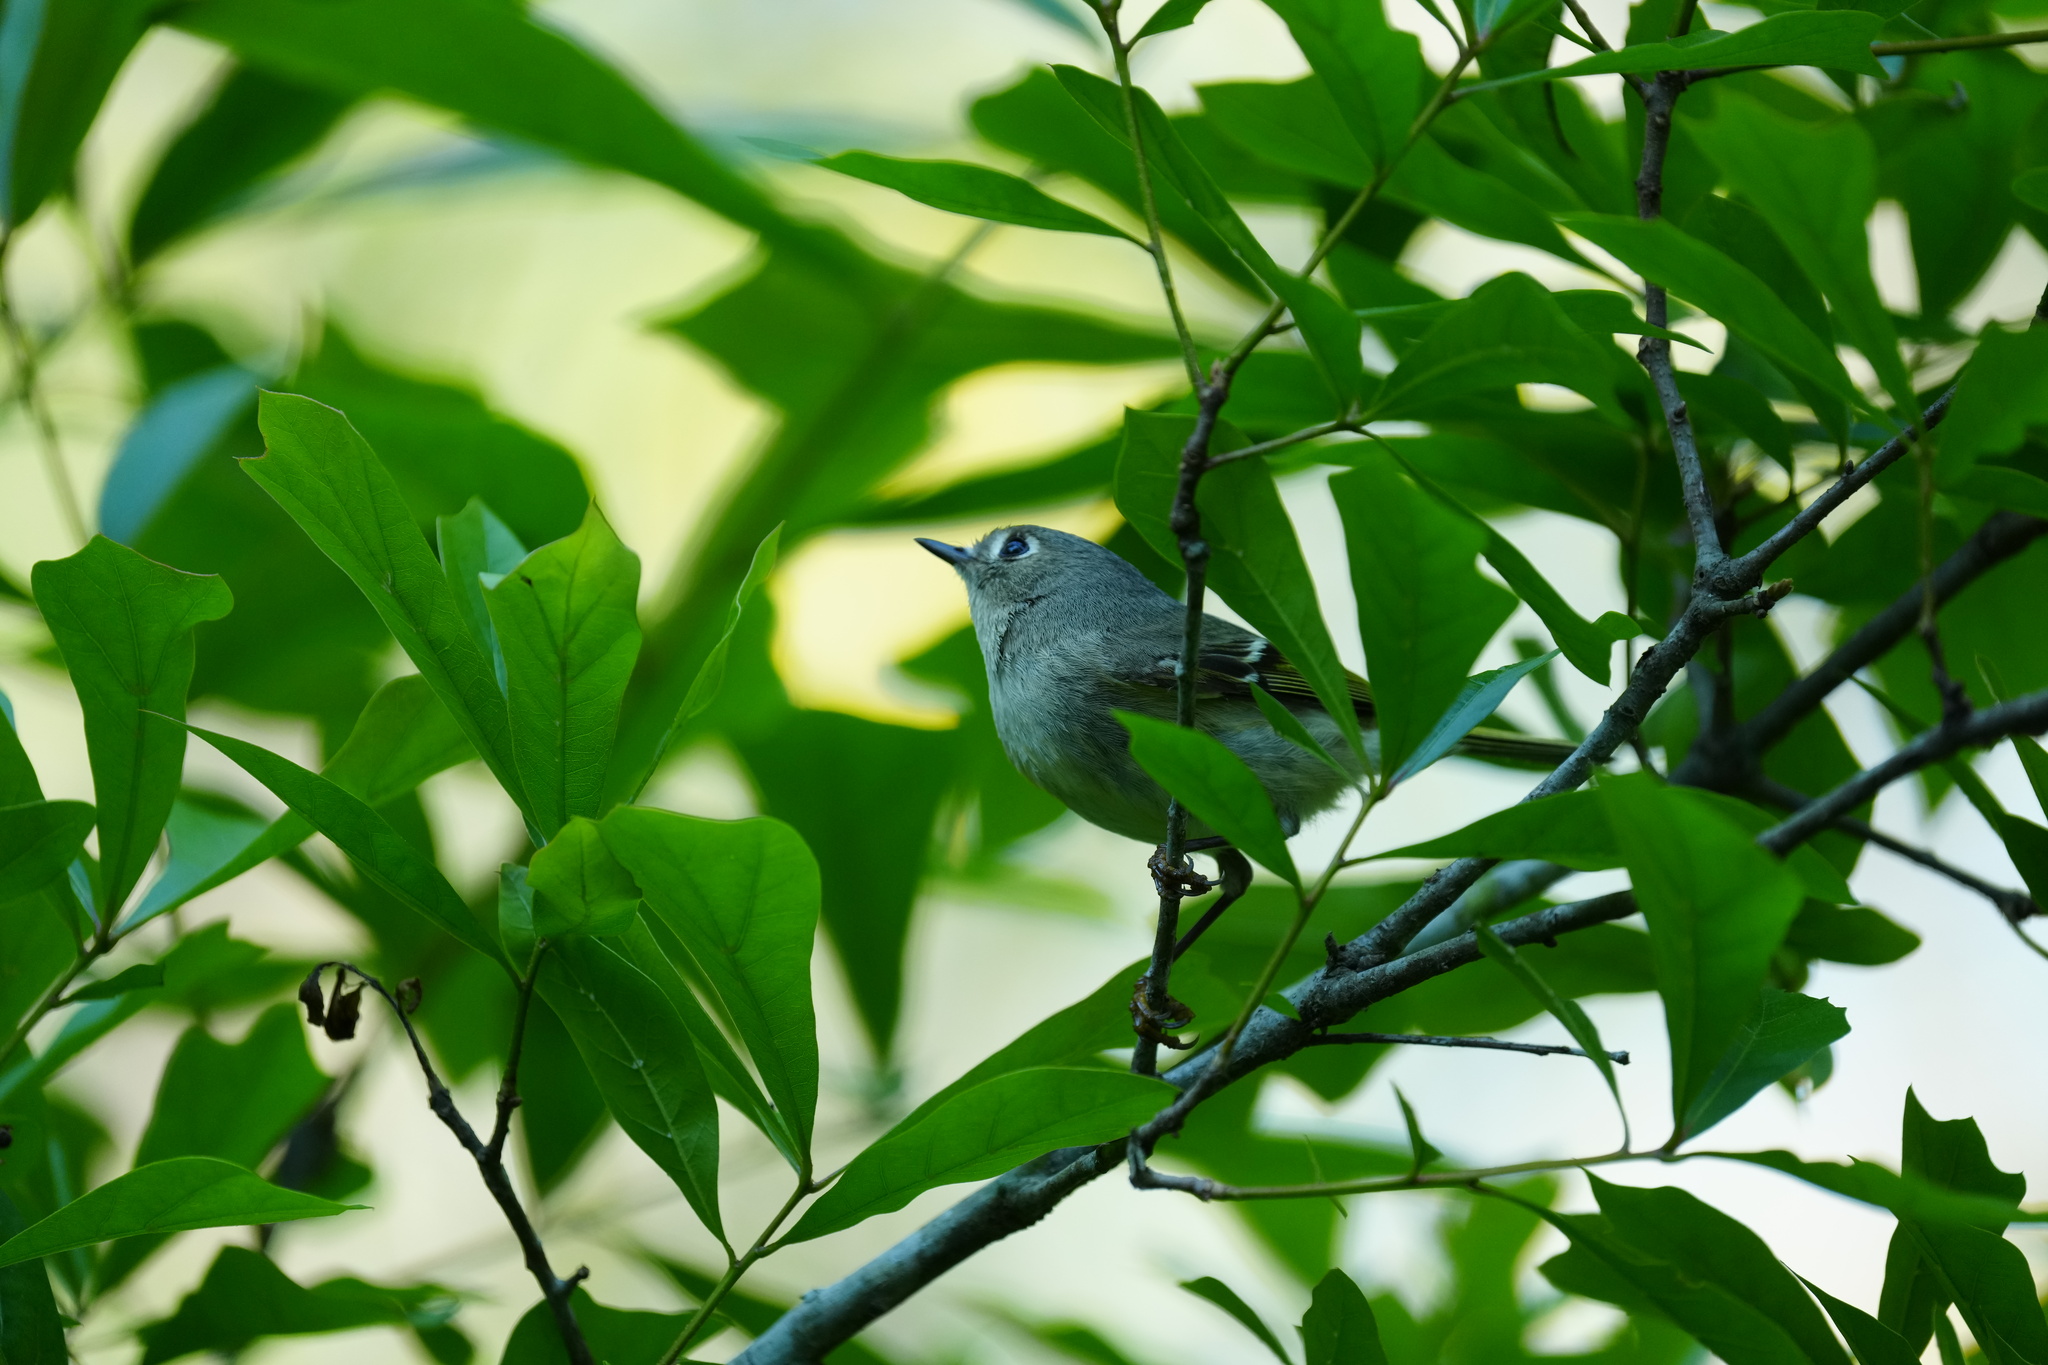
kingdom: Animalia
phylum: Chordata
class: Aves
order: Passeriformes
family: Regulidae
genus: Regulus
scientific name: Regulus calendula
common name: Ruby-crowned kinglet
